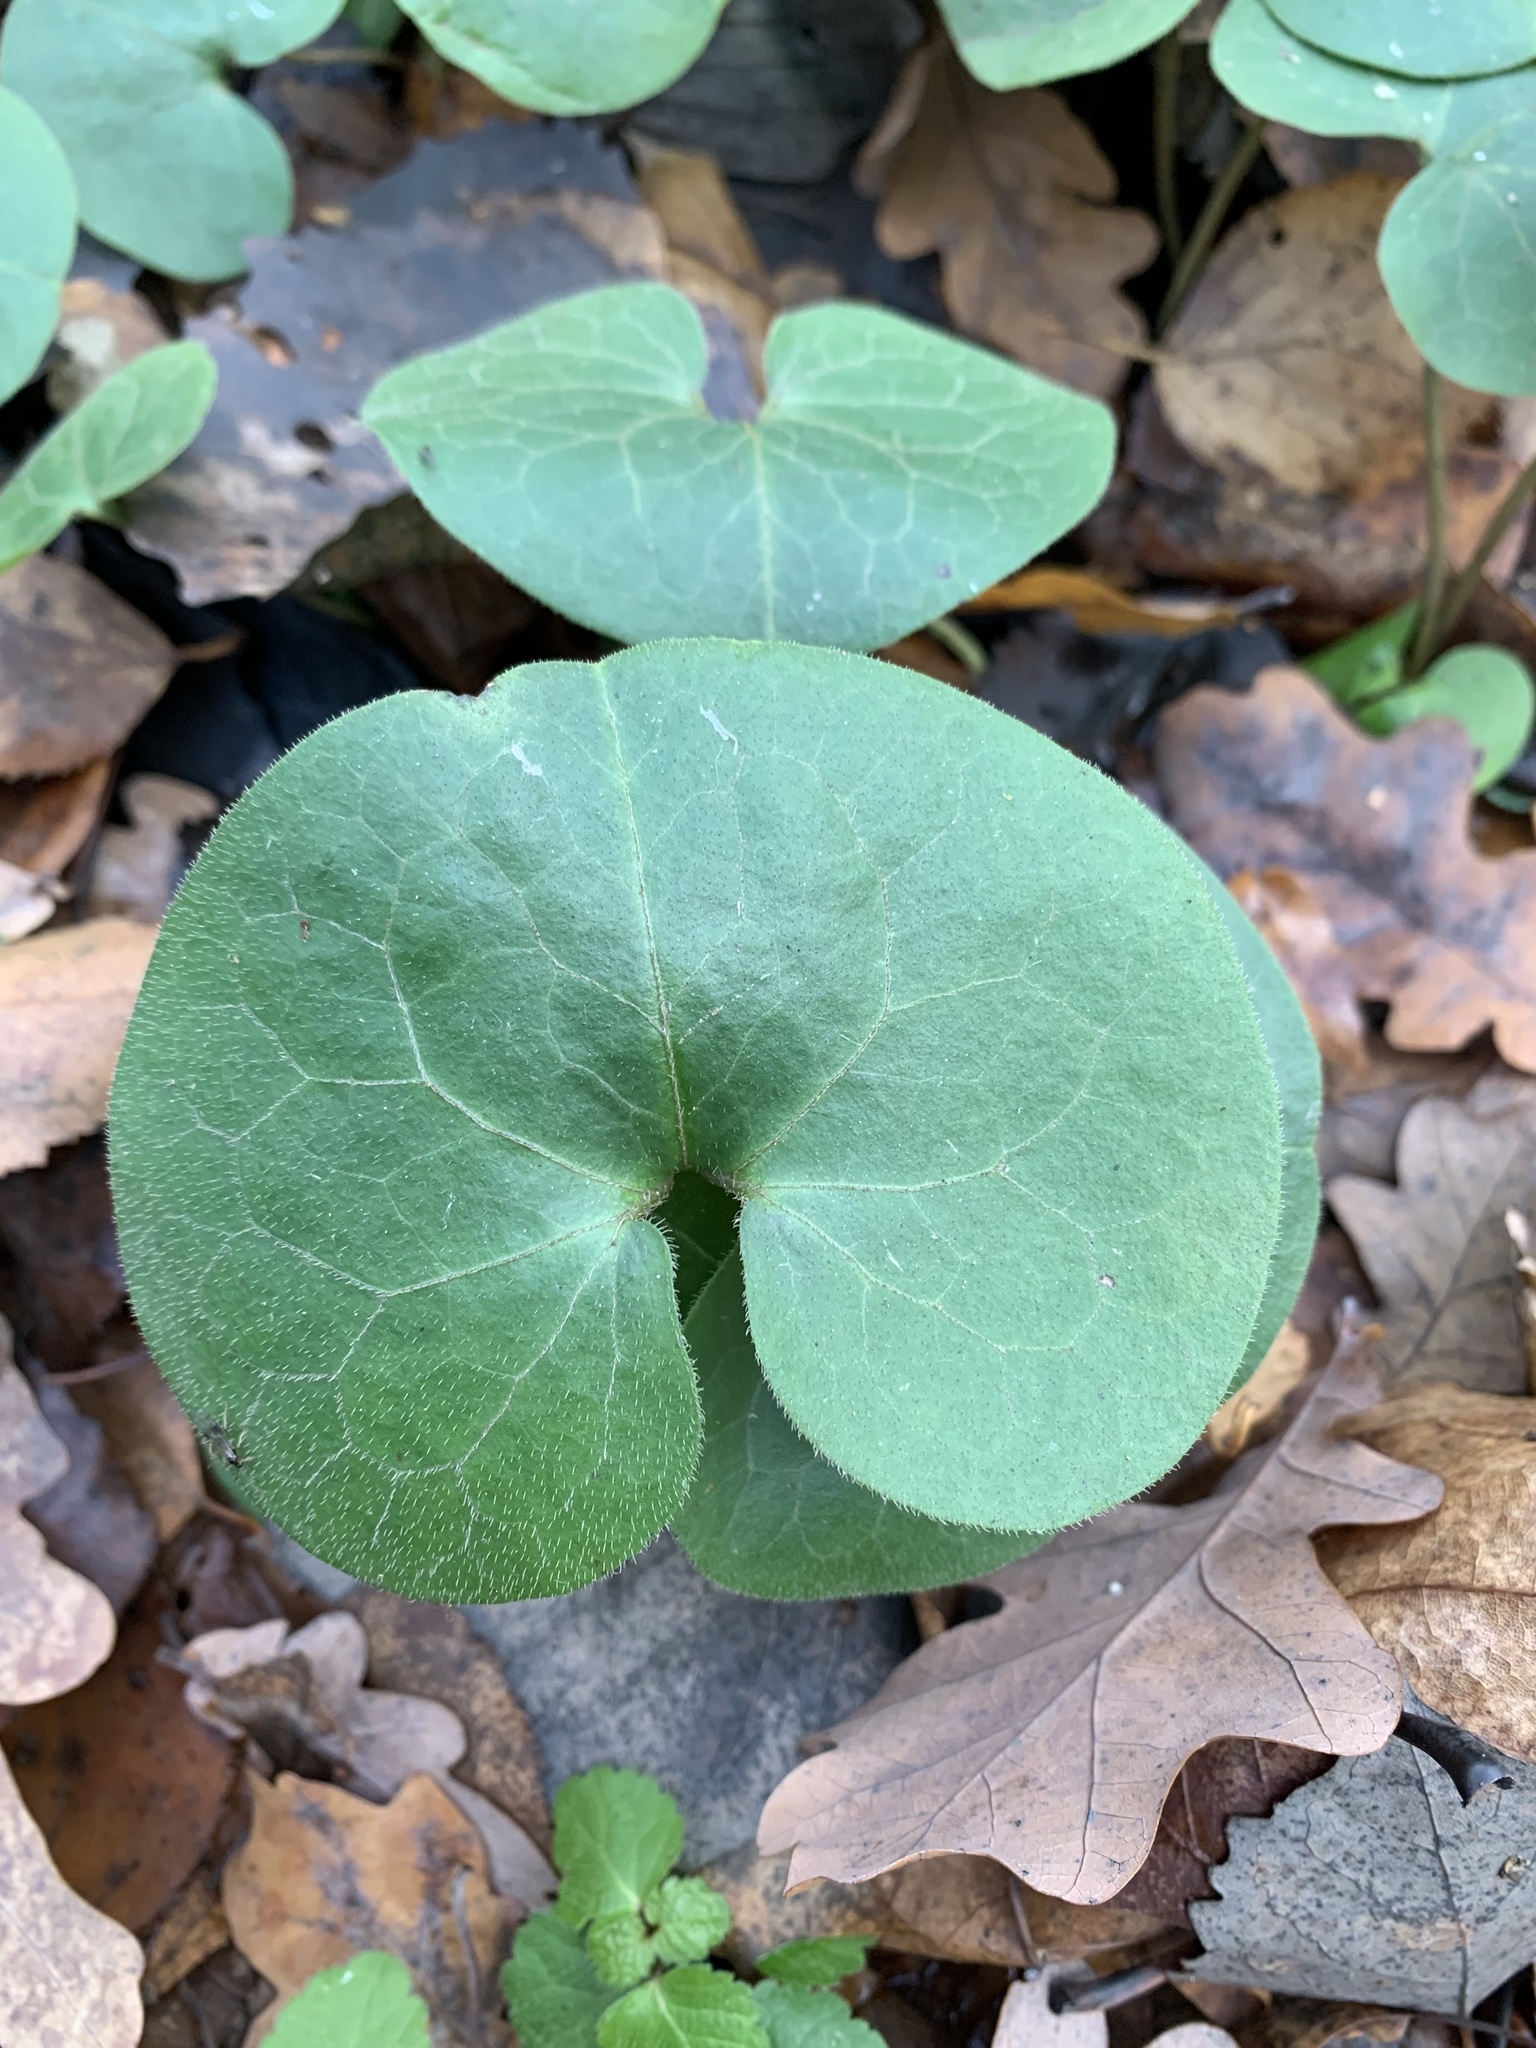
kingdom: Plantae
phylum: Tracheophyta
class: Magnoliopsida
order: Piperales
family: Aristolochiaceae
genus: Asarum
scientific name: Asarum europaeum
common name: Asarabacca
